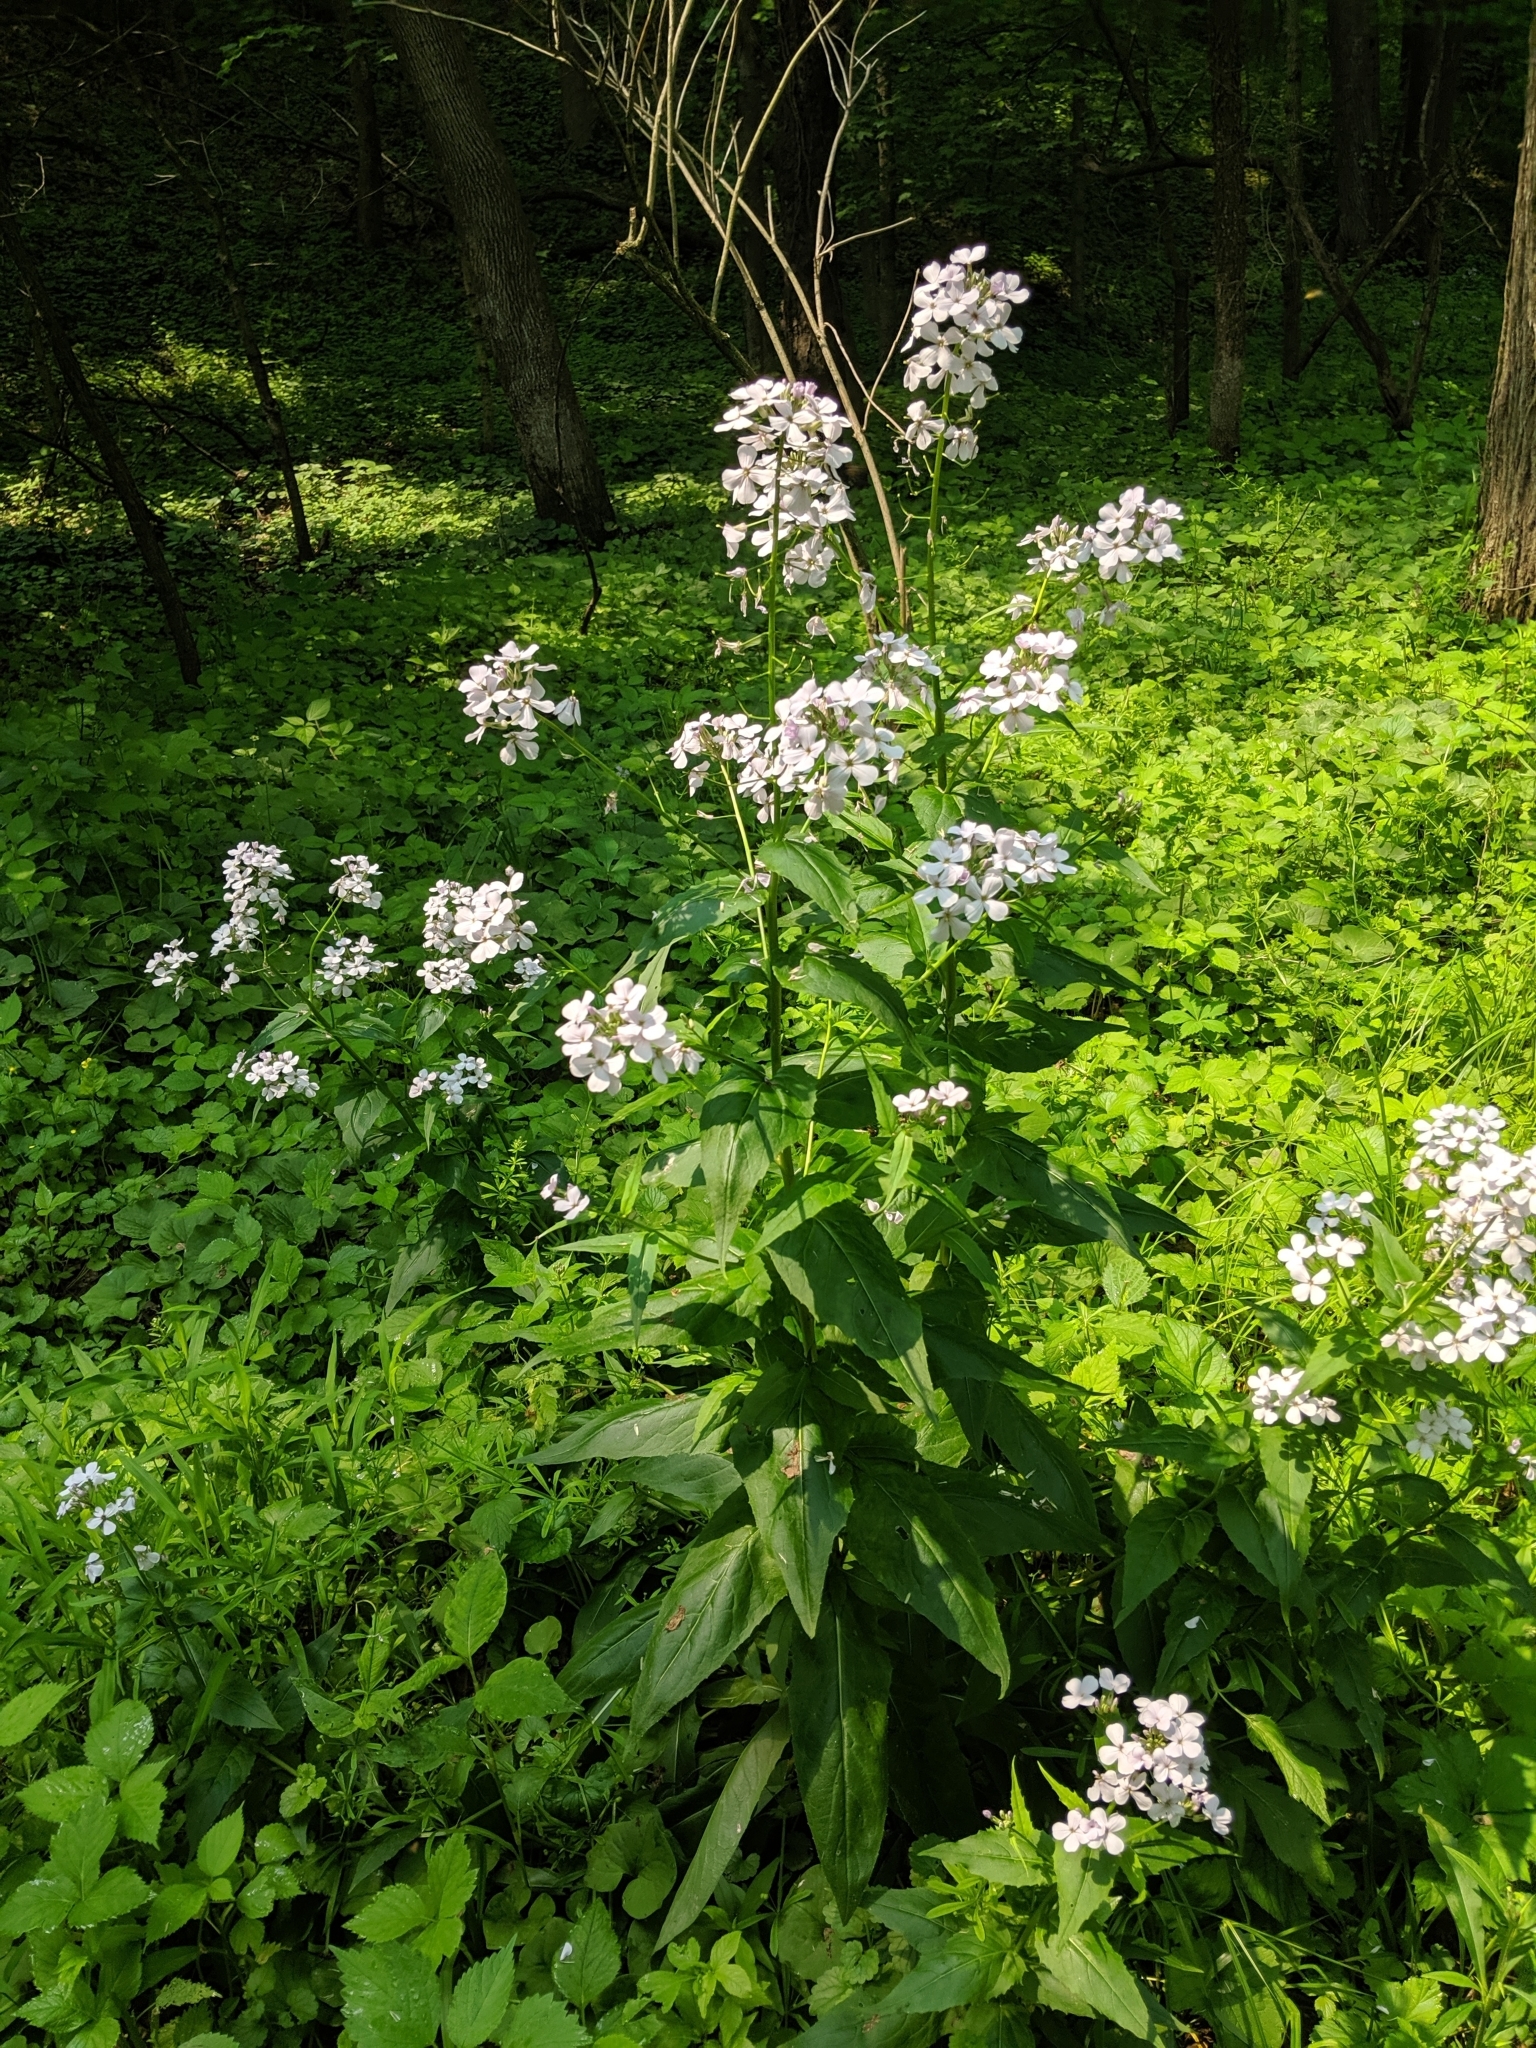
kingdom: Plantae
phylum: Tracheophyta
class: Magnoliopsida
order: Brassicales
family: Brassicaceae
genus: Hesperis
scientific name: Hesperis matronalis
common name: Dame's-violet
